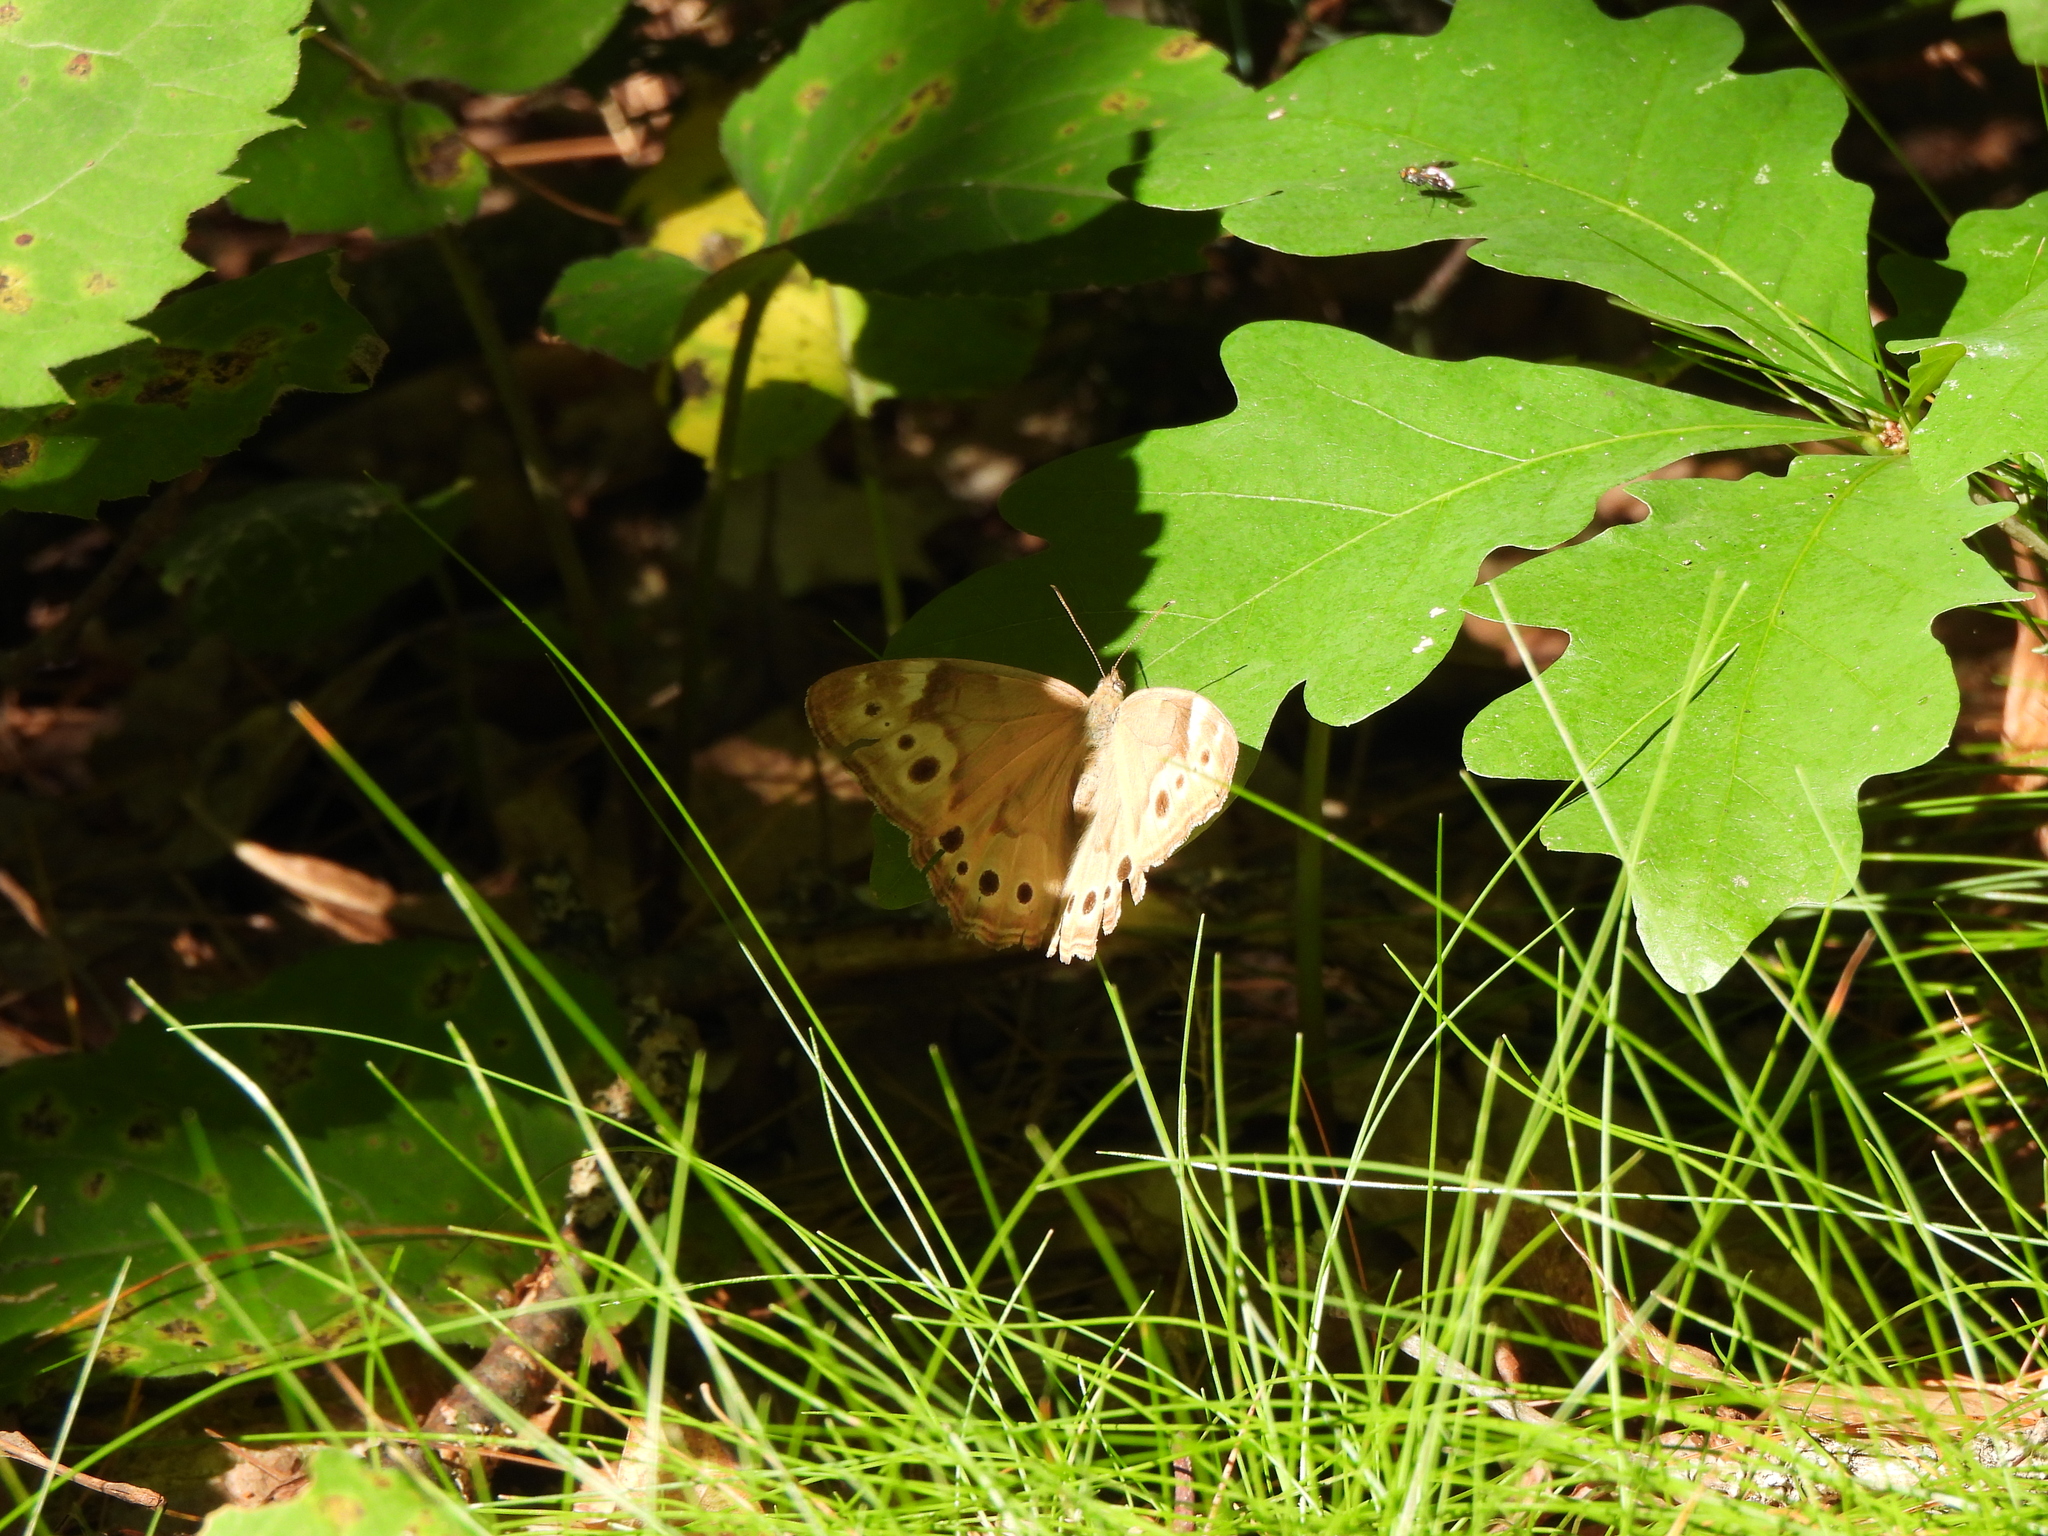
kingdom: Animalia
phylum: Arthropoda
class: Insecta
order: Lepidoptera
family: Nymphalidae
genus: Lethe
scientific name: Lethe anthedon
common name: Northern pearly-eye
